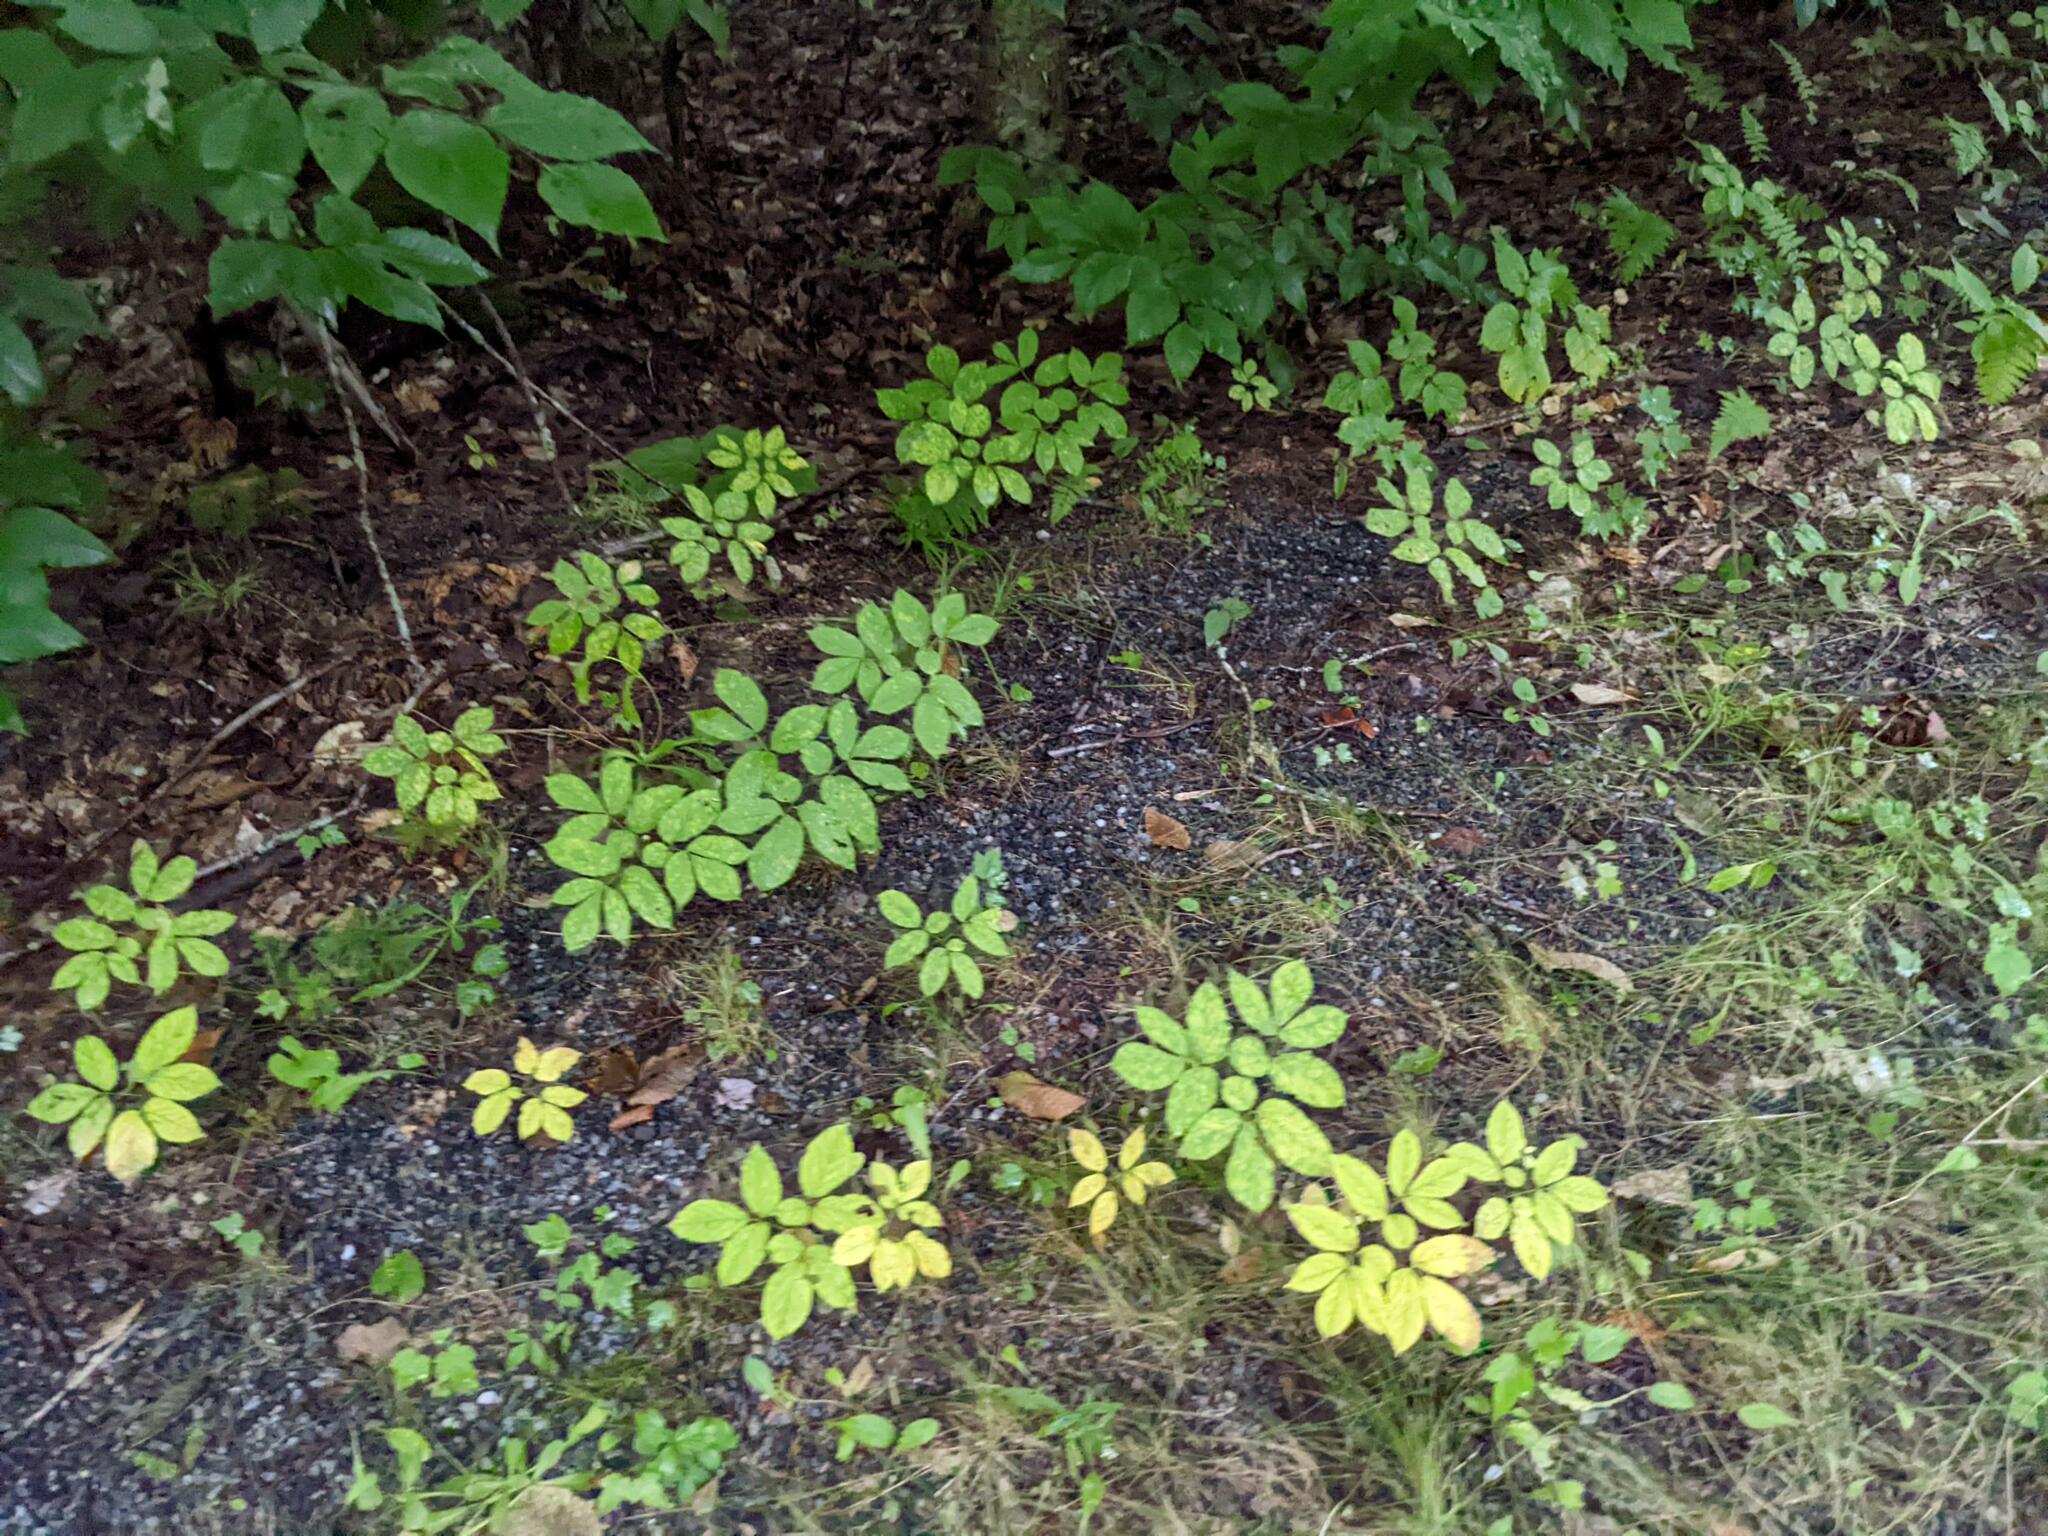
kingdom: Plantae
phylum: Tracheophyta
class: Magnoliopsida
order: Apiales
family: Araliaceae
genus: Aralia
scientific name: Aralia nudicaulis
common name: Wild sarsaparilla
